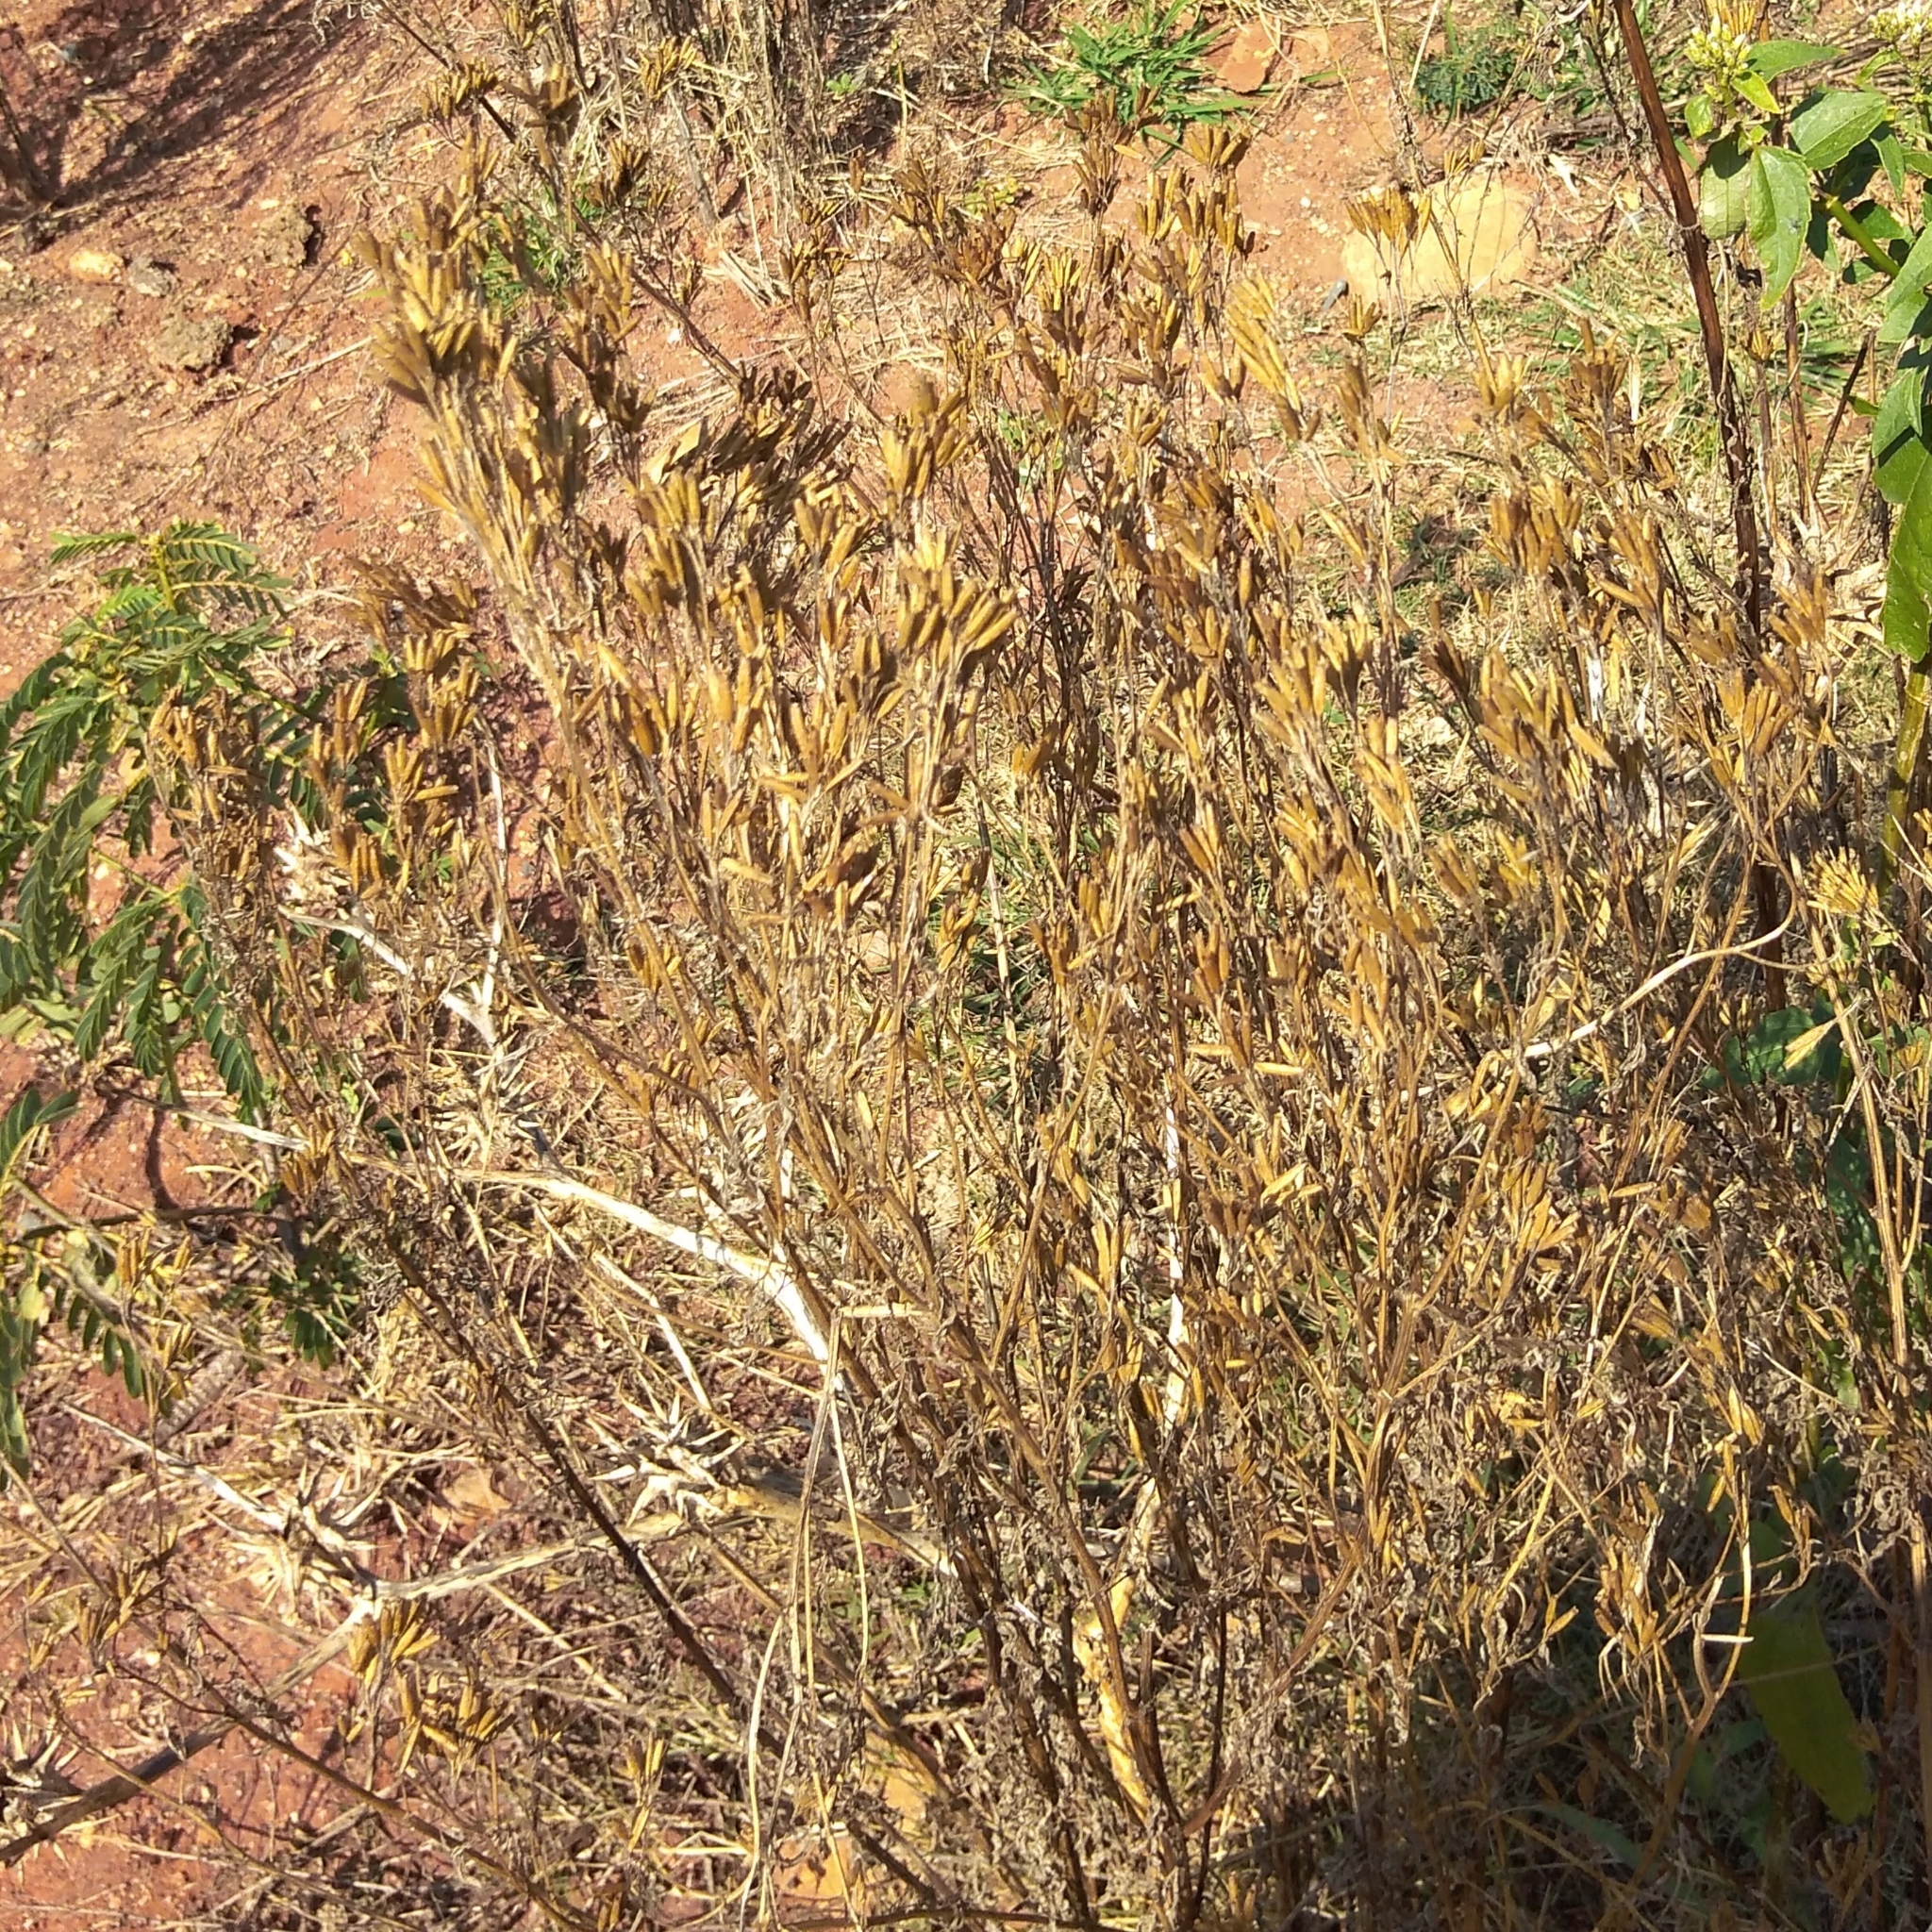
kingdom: Plantae
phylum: Tracheophyta
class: Magnoliopsida
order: Asterales
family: Asteraceae
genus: Tagetes
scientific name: Tagetes minuta
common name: Muster john henry
